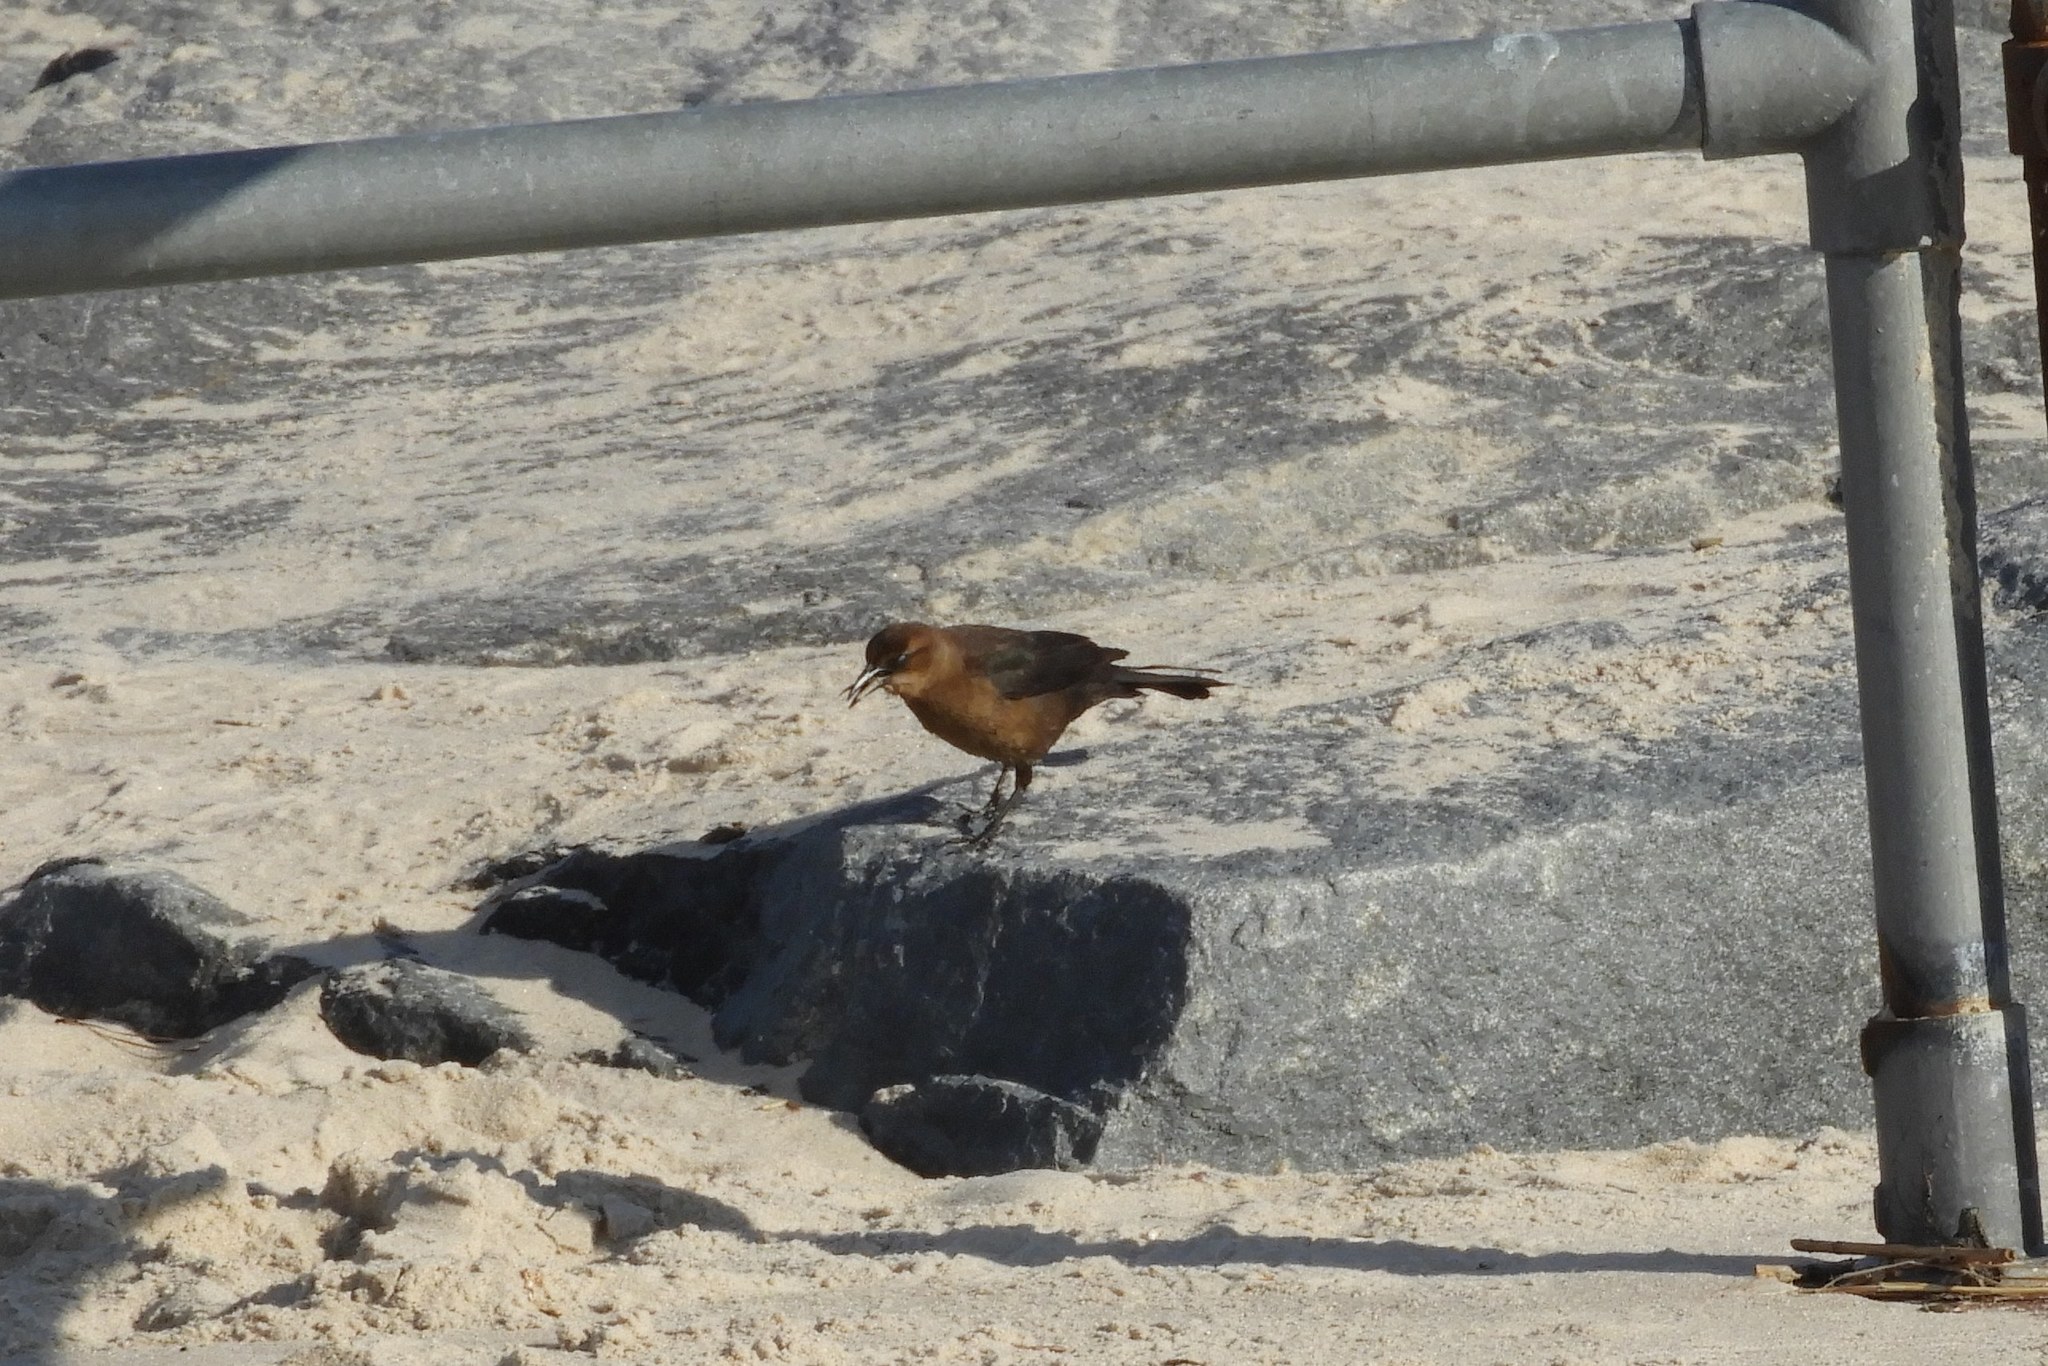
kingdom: Animalia
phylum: Chordata
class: Aves
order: Passeriformes
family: Icteridae
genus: Quiscalus
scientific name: Quiscalus major
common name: Boat-tailed grackle
